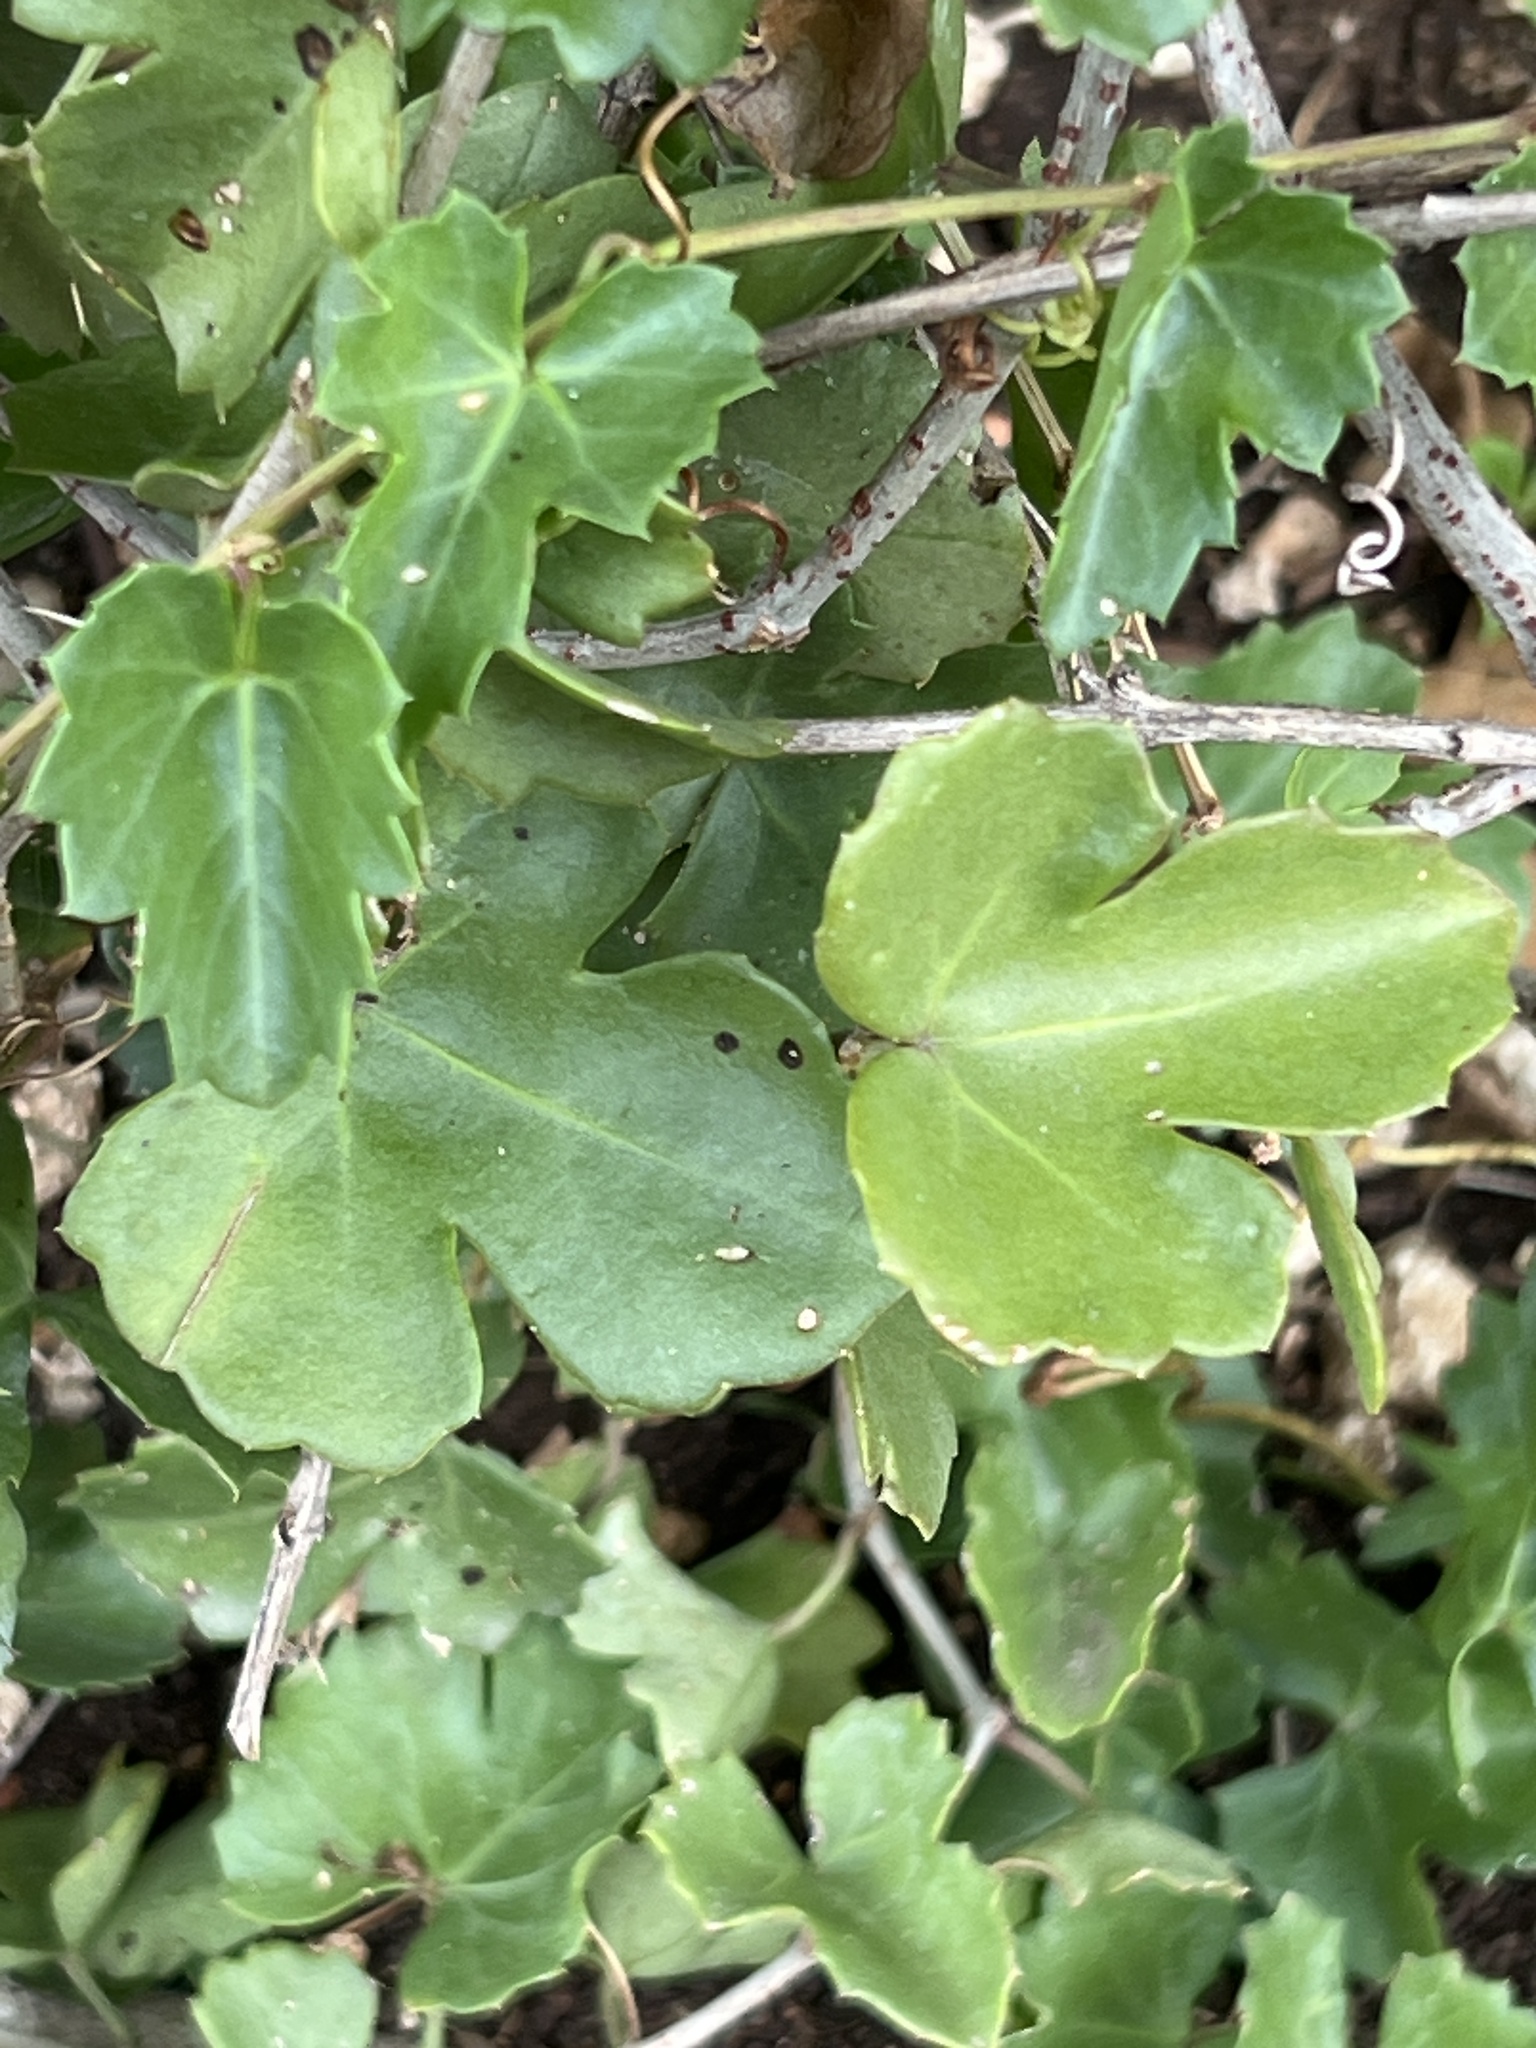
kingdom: Plantae
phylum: Tracheophyta
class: Magnoliopsida
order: Vitales
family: Vitaceae
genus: Cissus
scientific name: Cissus trifoliata
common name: Vine-sorrel
